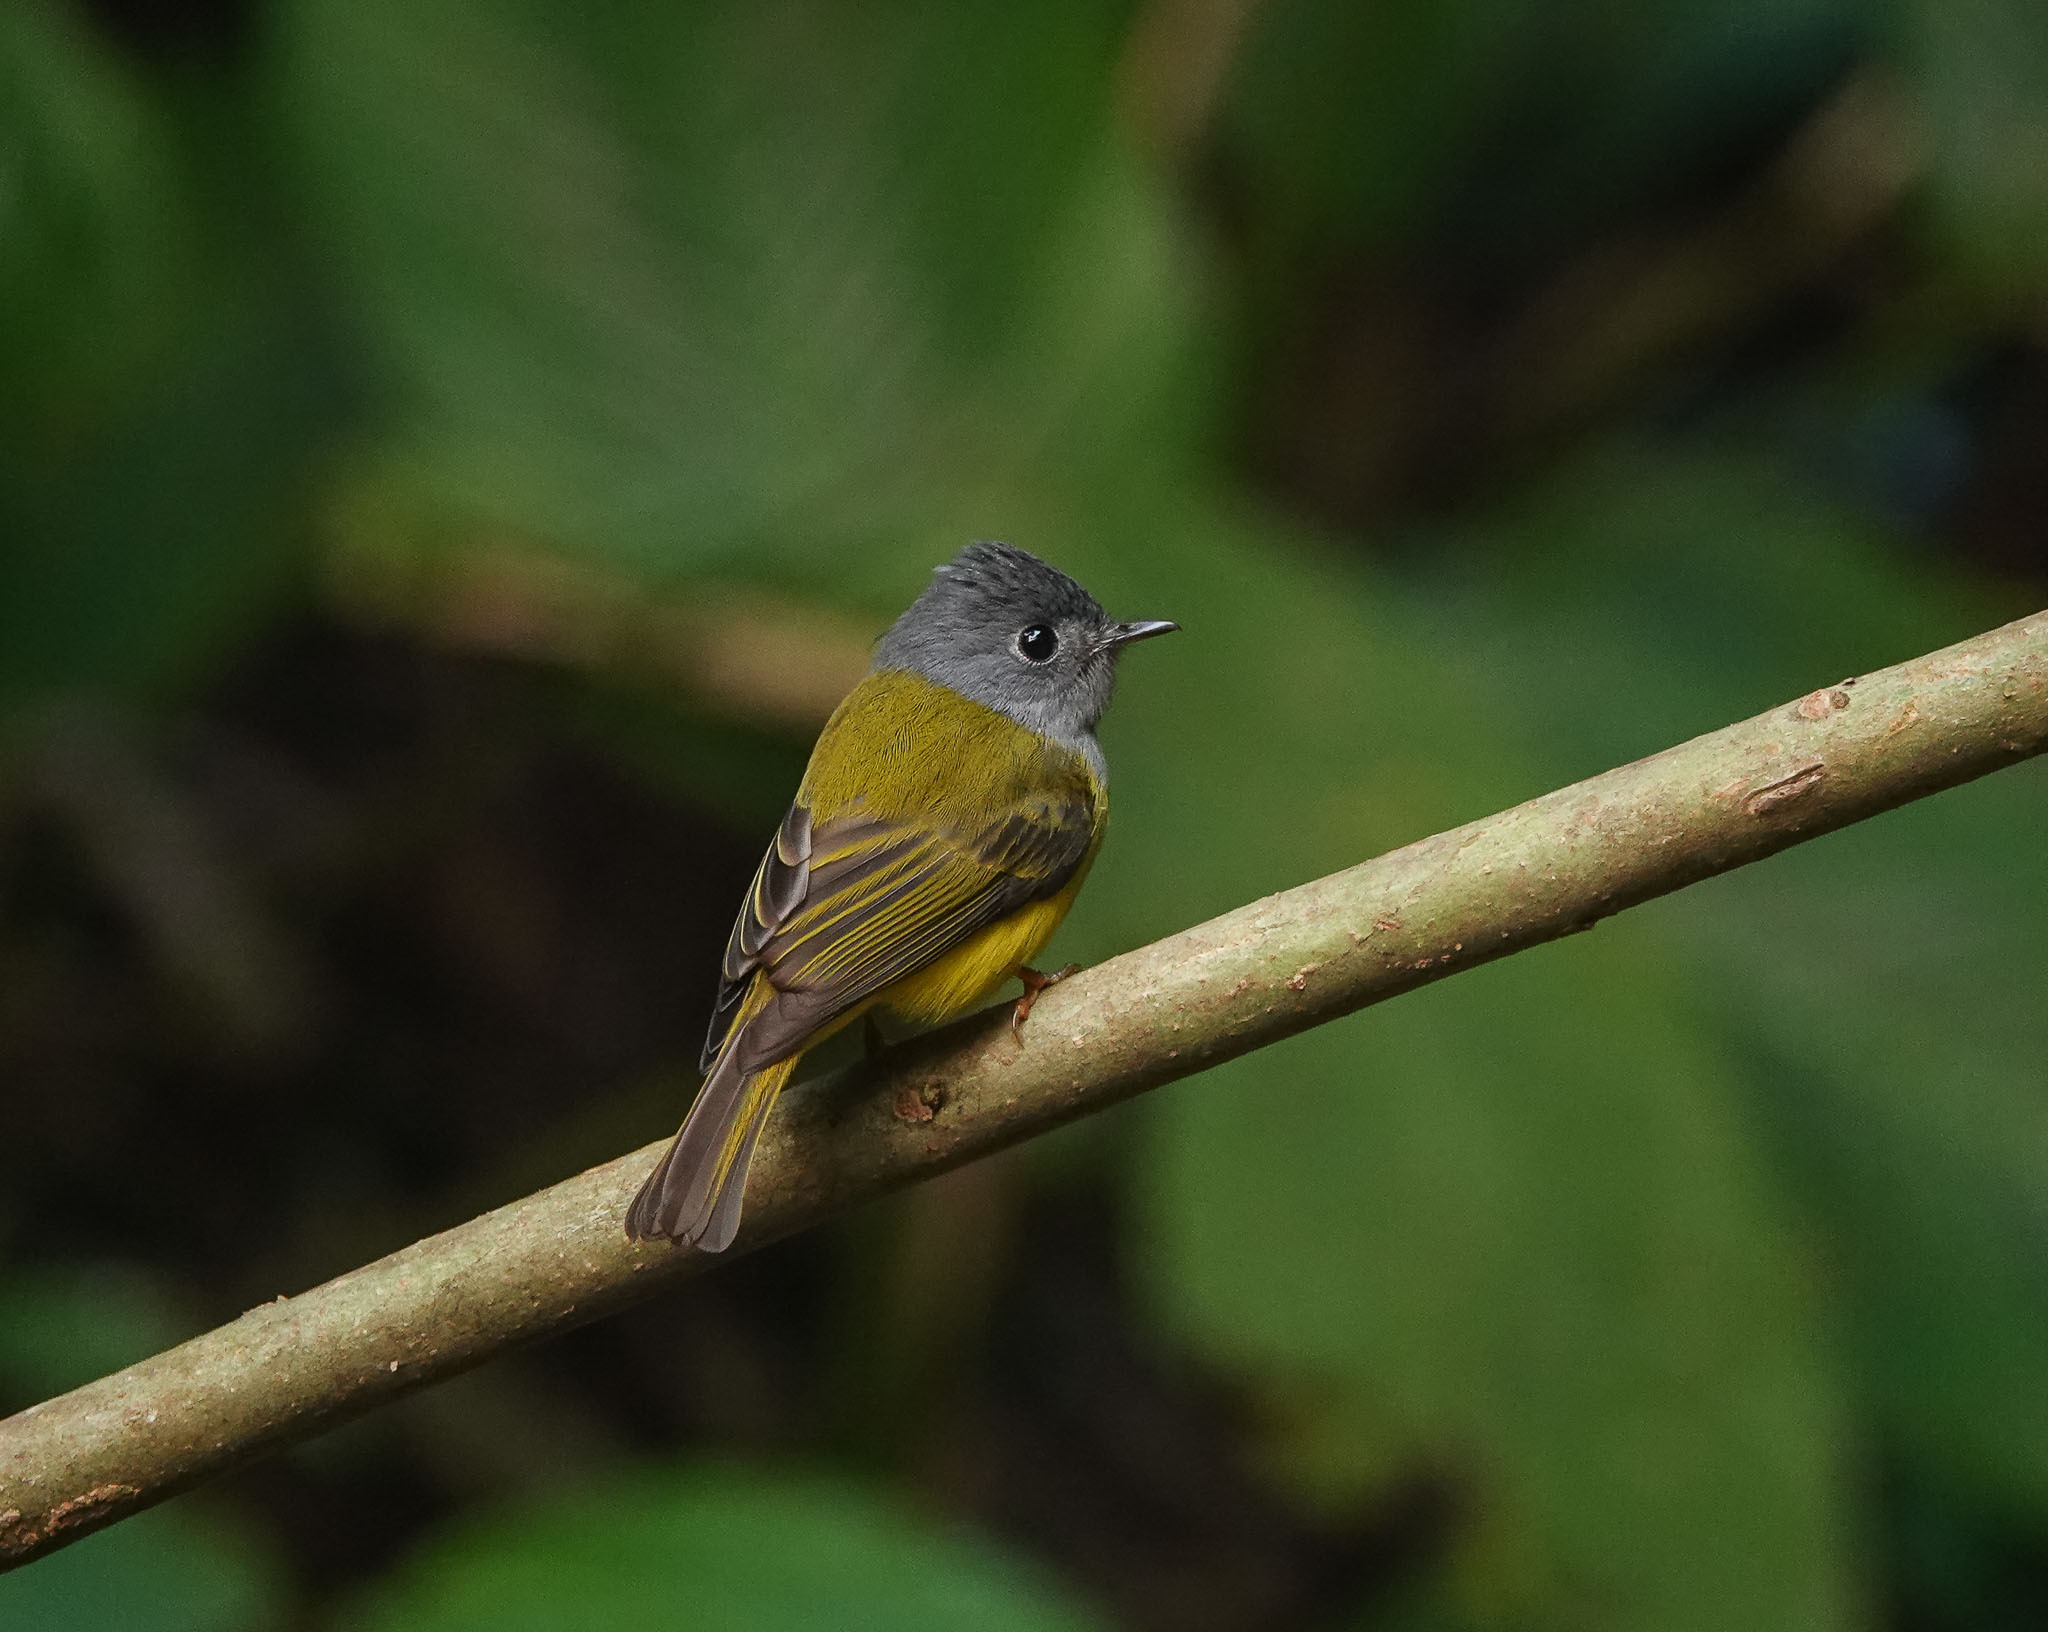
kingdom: Animalia
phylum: Chordata
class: Aves
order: Passeriformes
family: Stenostiridae
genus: Culicicapa
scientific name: Culicicapa ceylonensis
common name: Grey-headed canary-flycatcher
